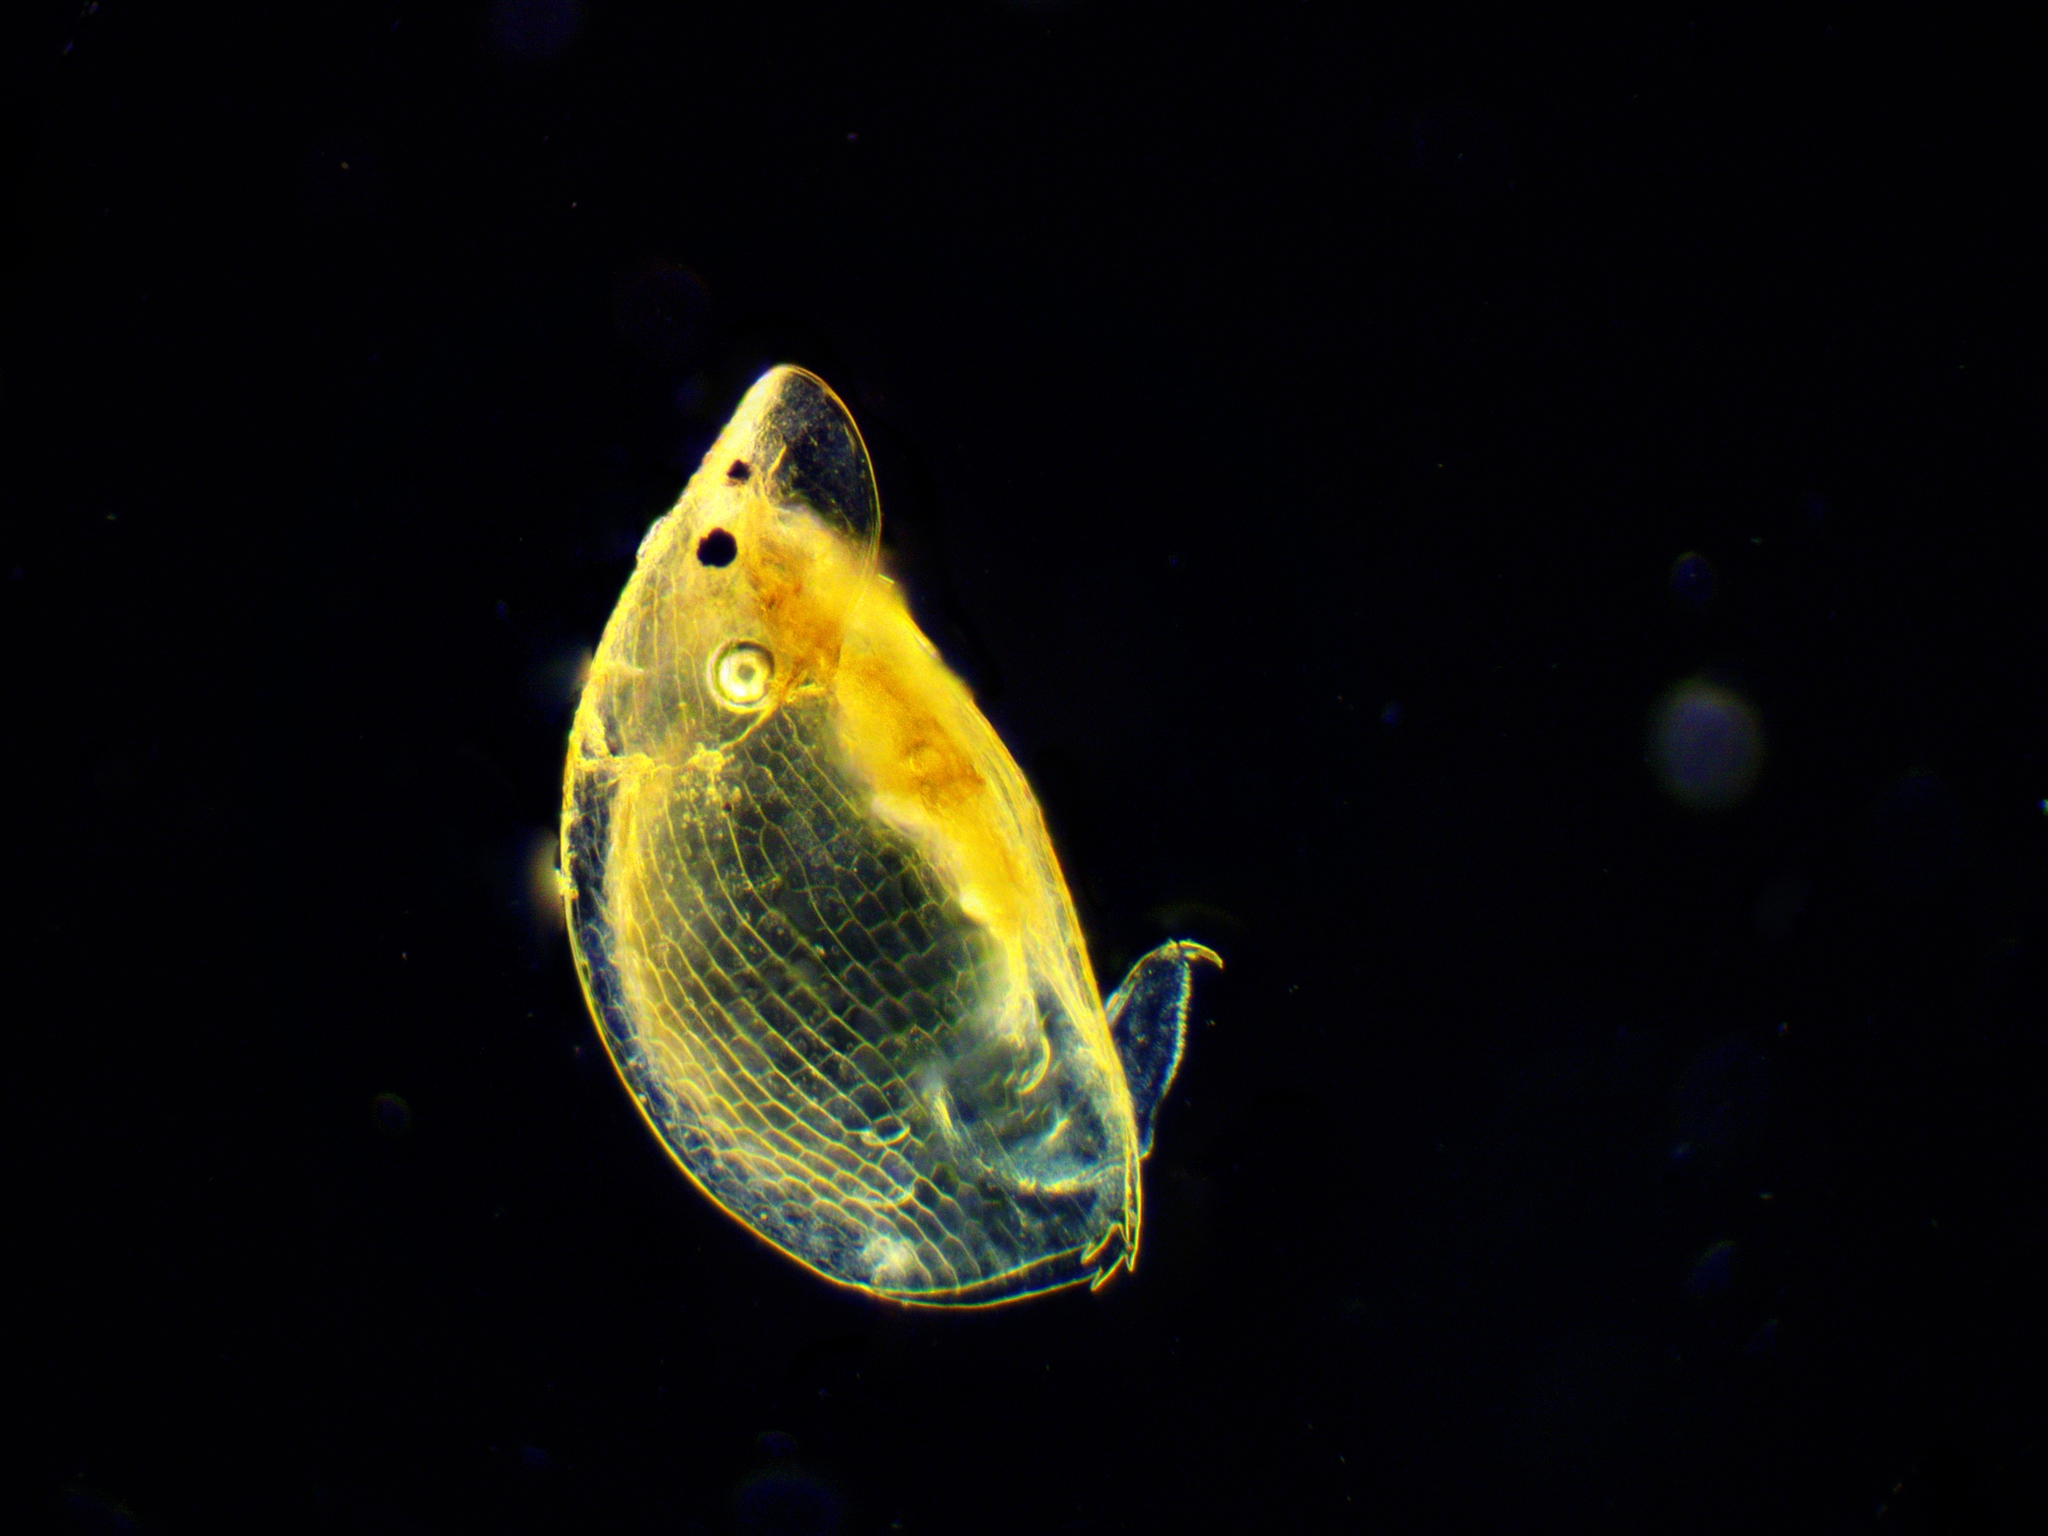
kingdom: Animalia
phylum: Arthropoda
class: Branchiopoda
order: Diplostraca
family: Chydoridae
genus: Graptoleberis
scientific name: Graptoleberis testudinaria
